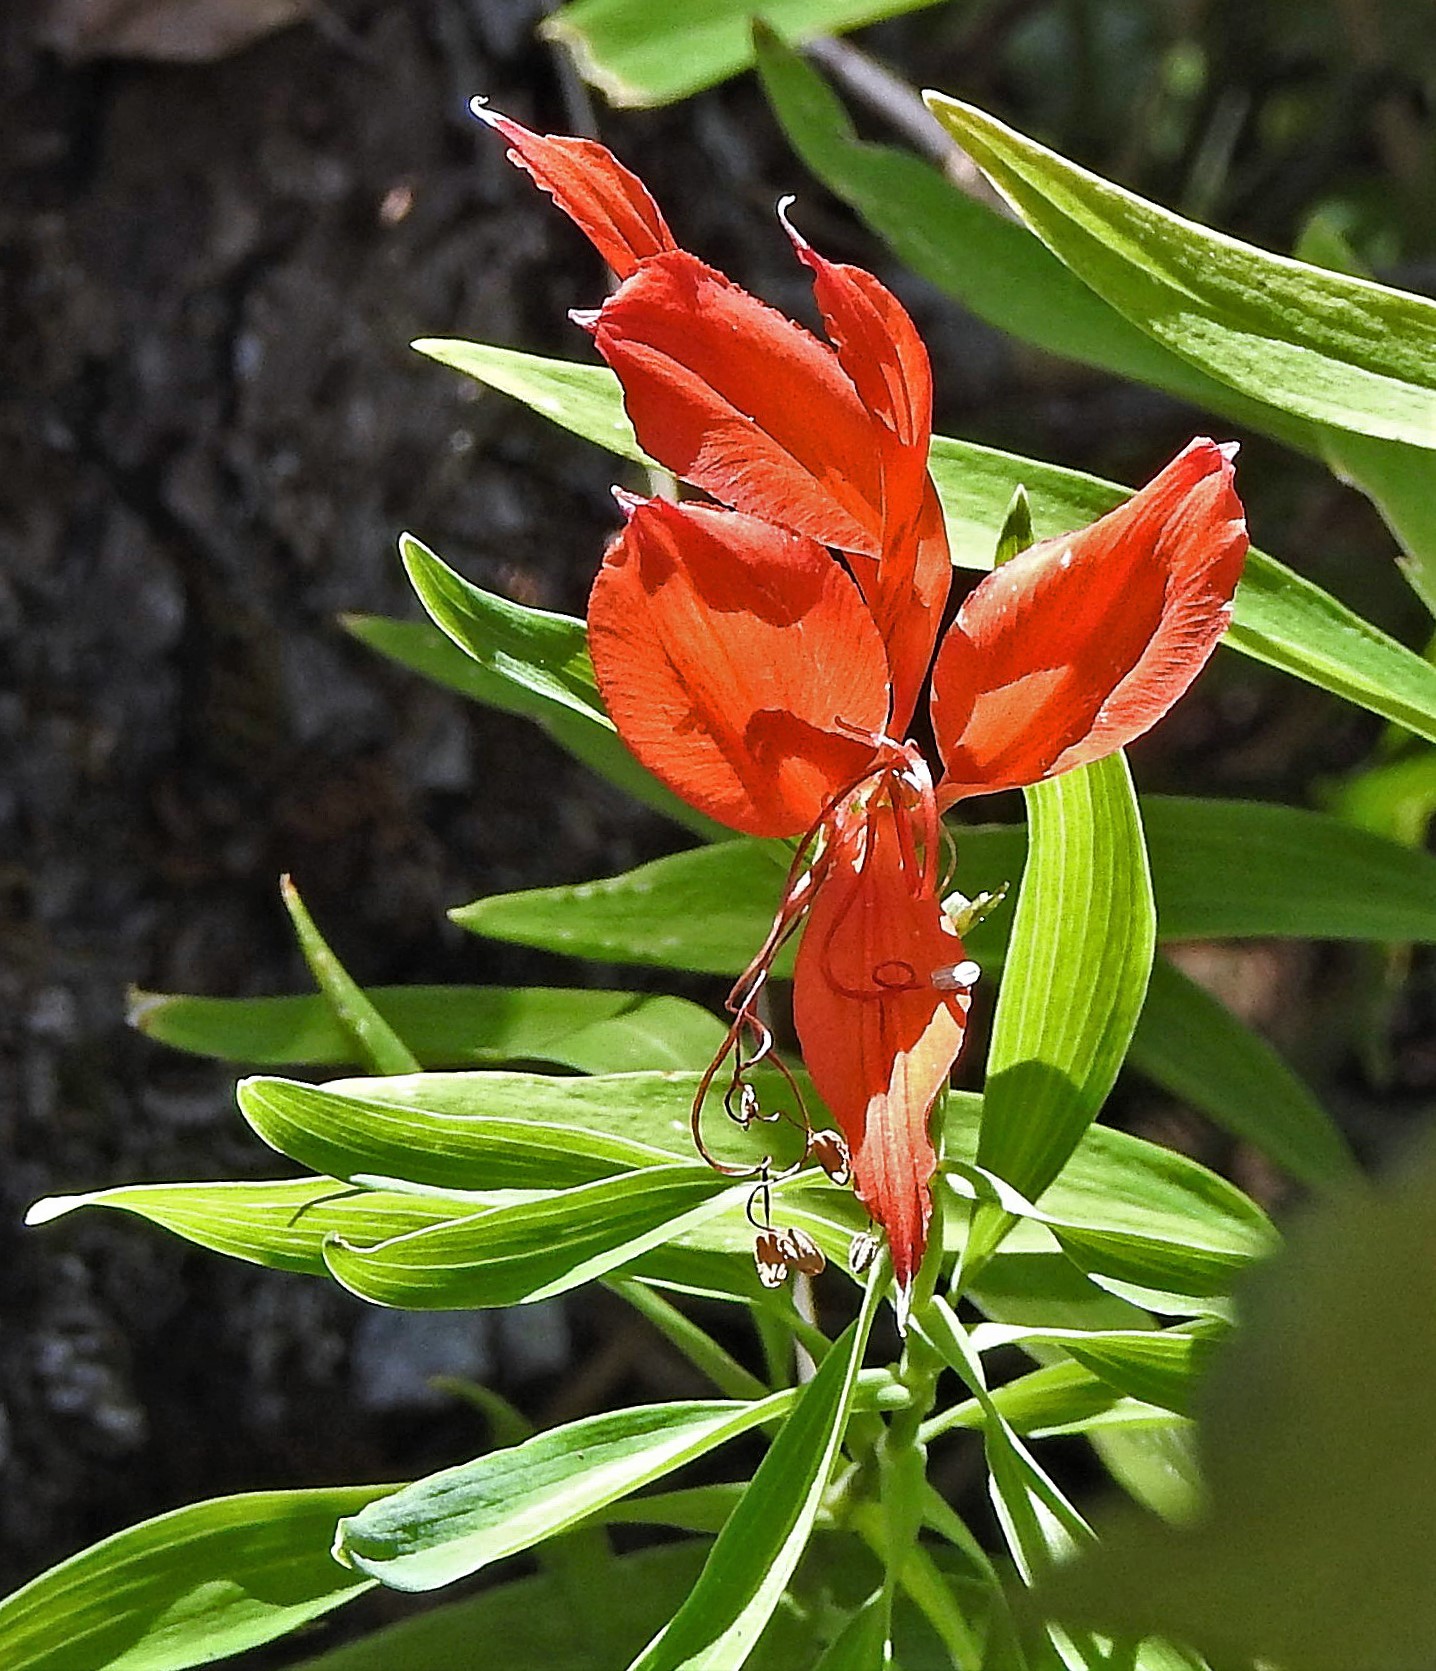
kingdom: Plantae
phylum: Tracheophyta
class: Liliopsida
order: Liliales
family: Alstroemeriaceae
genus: Alstroemeria
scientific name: Alstroemeria aurea
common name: Peruvian lily
